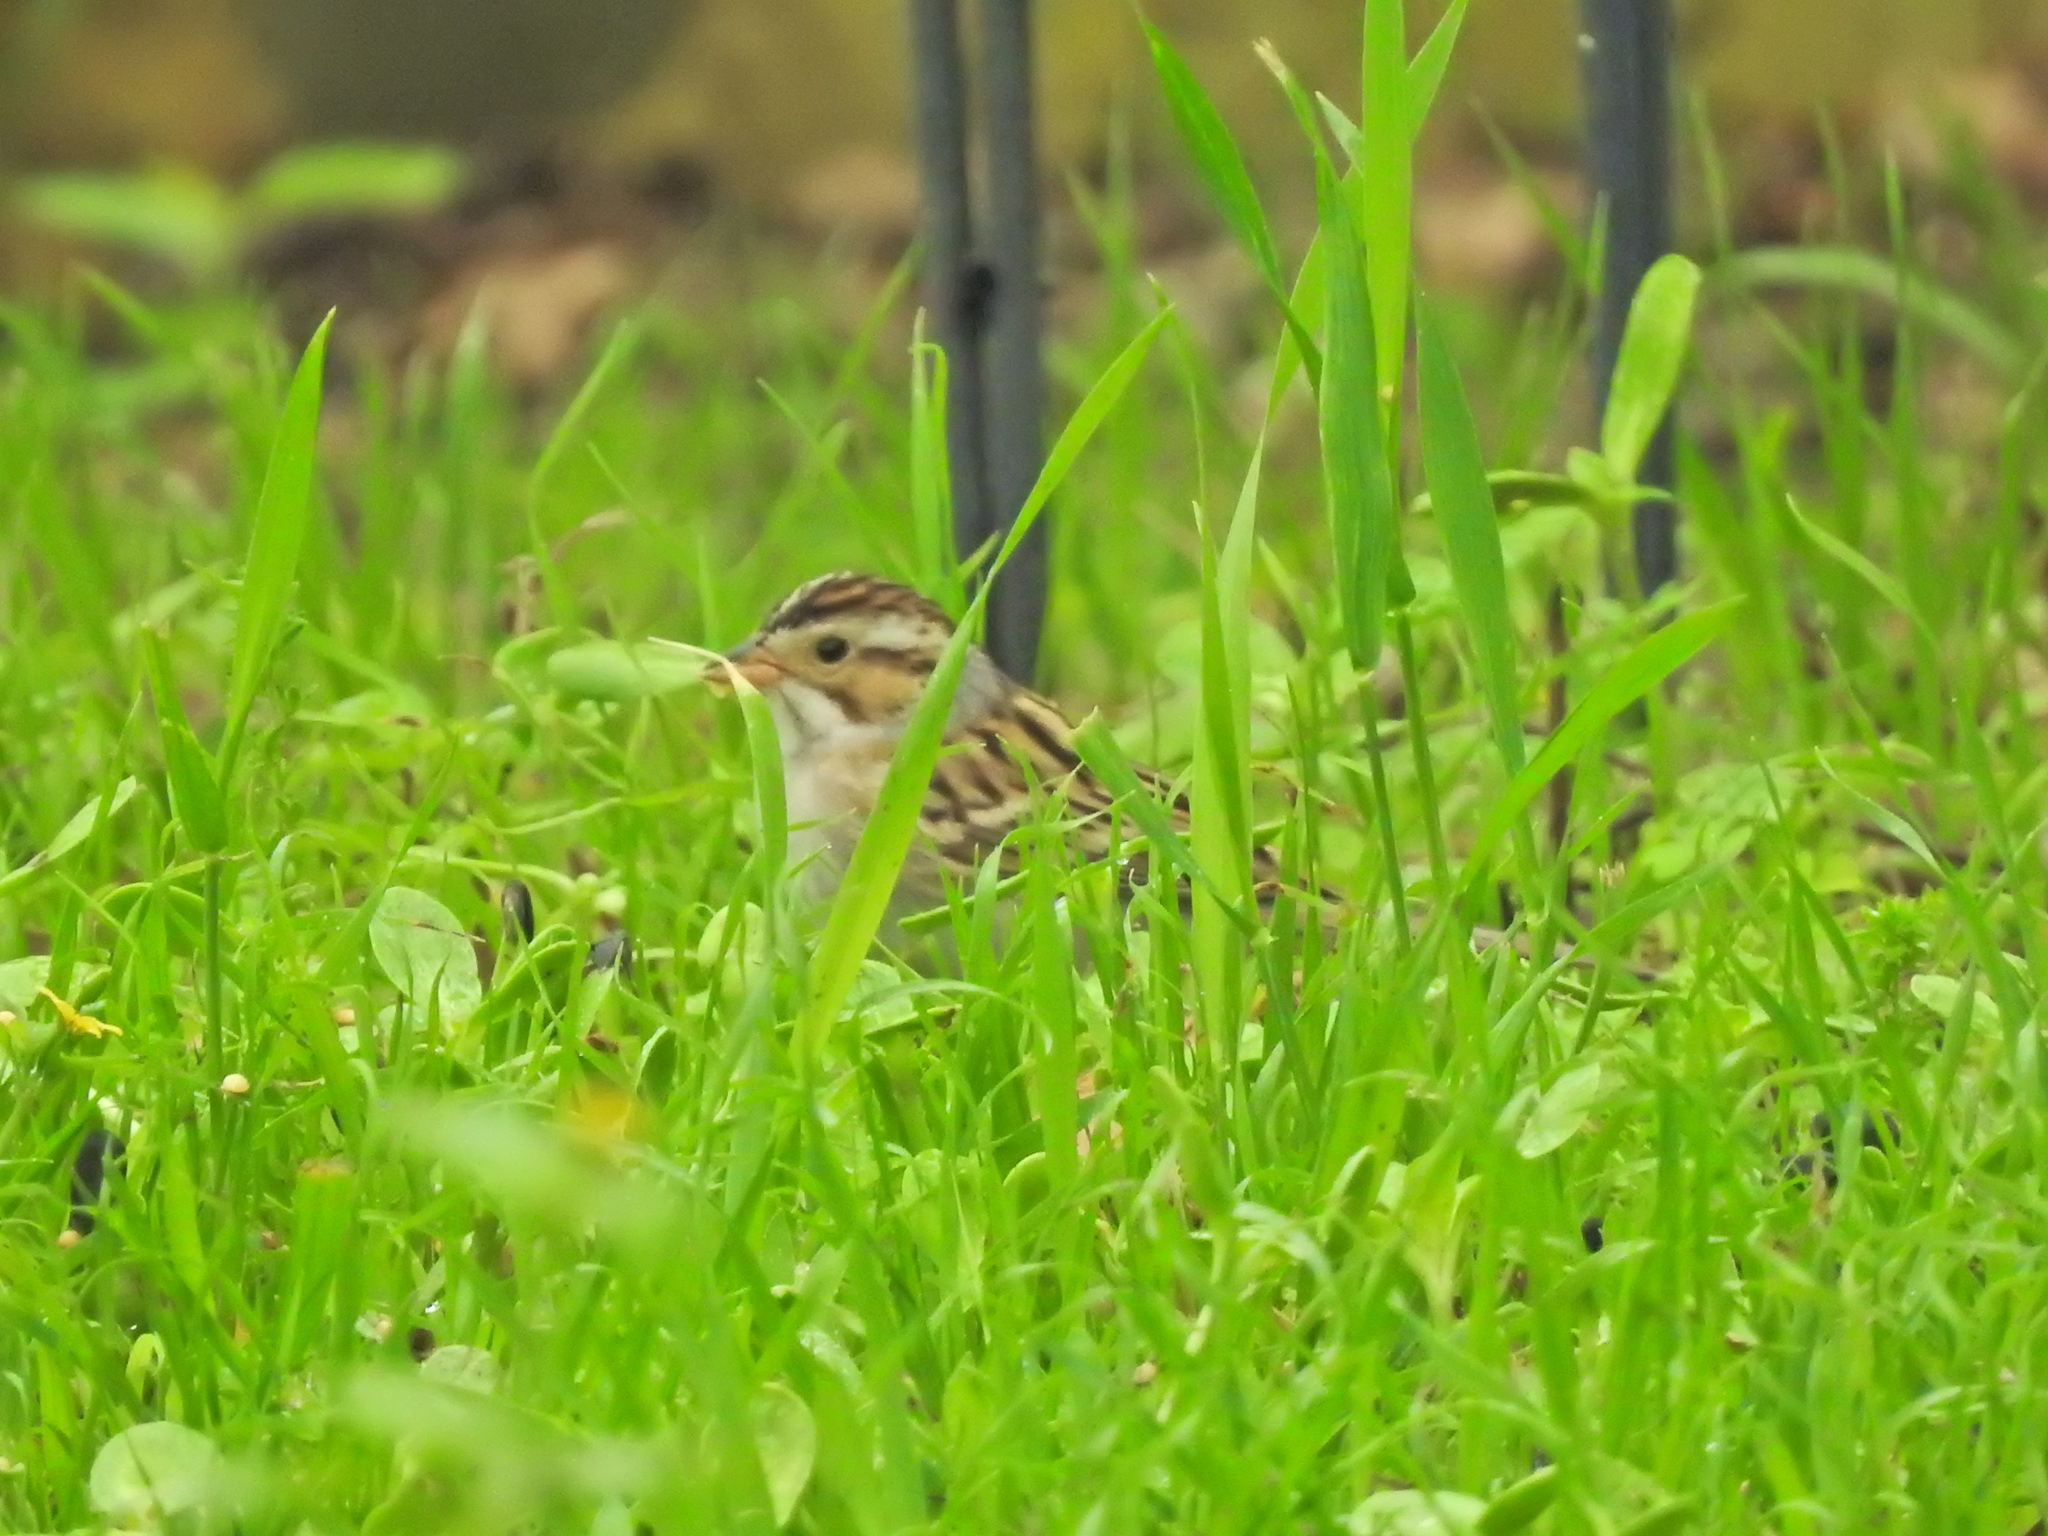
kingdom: Animalia
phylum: Chordata
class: Aves
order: Passeriformes
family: Passerellidae
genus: Spizella
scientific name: Spizella pallida
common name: Clay-colored sparrow
